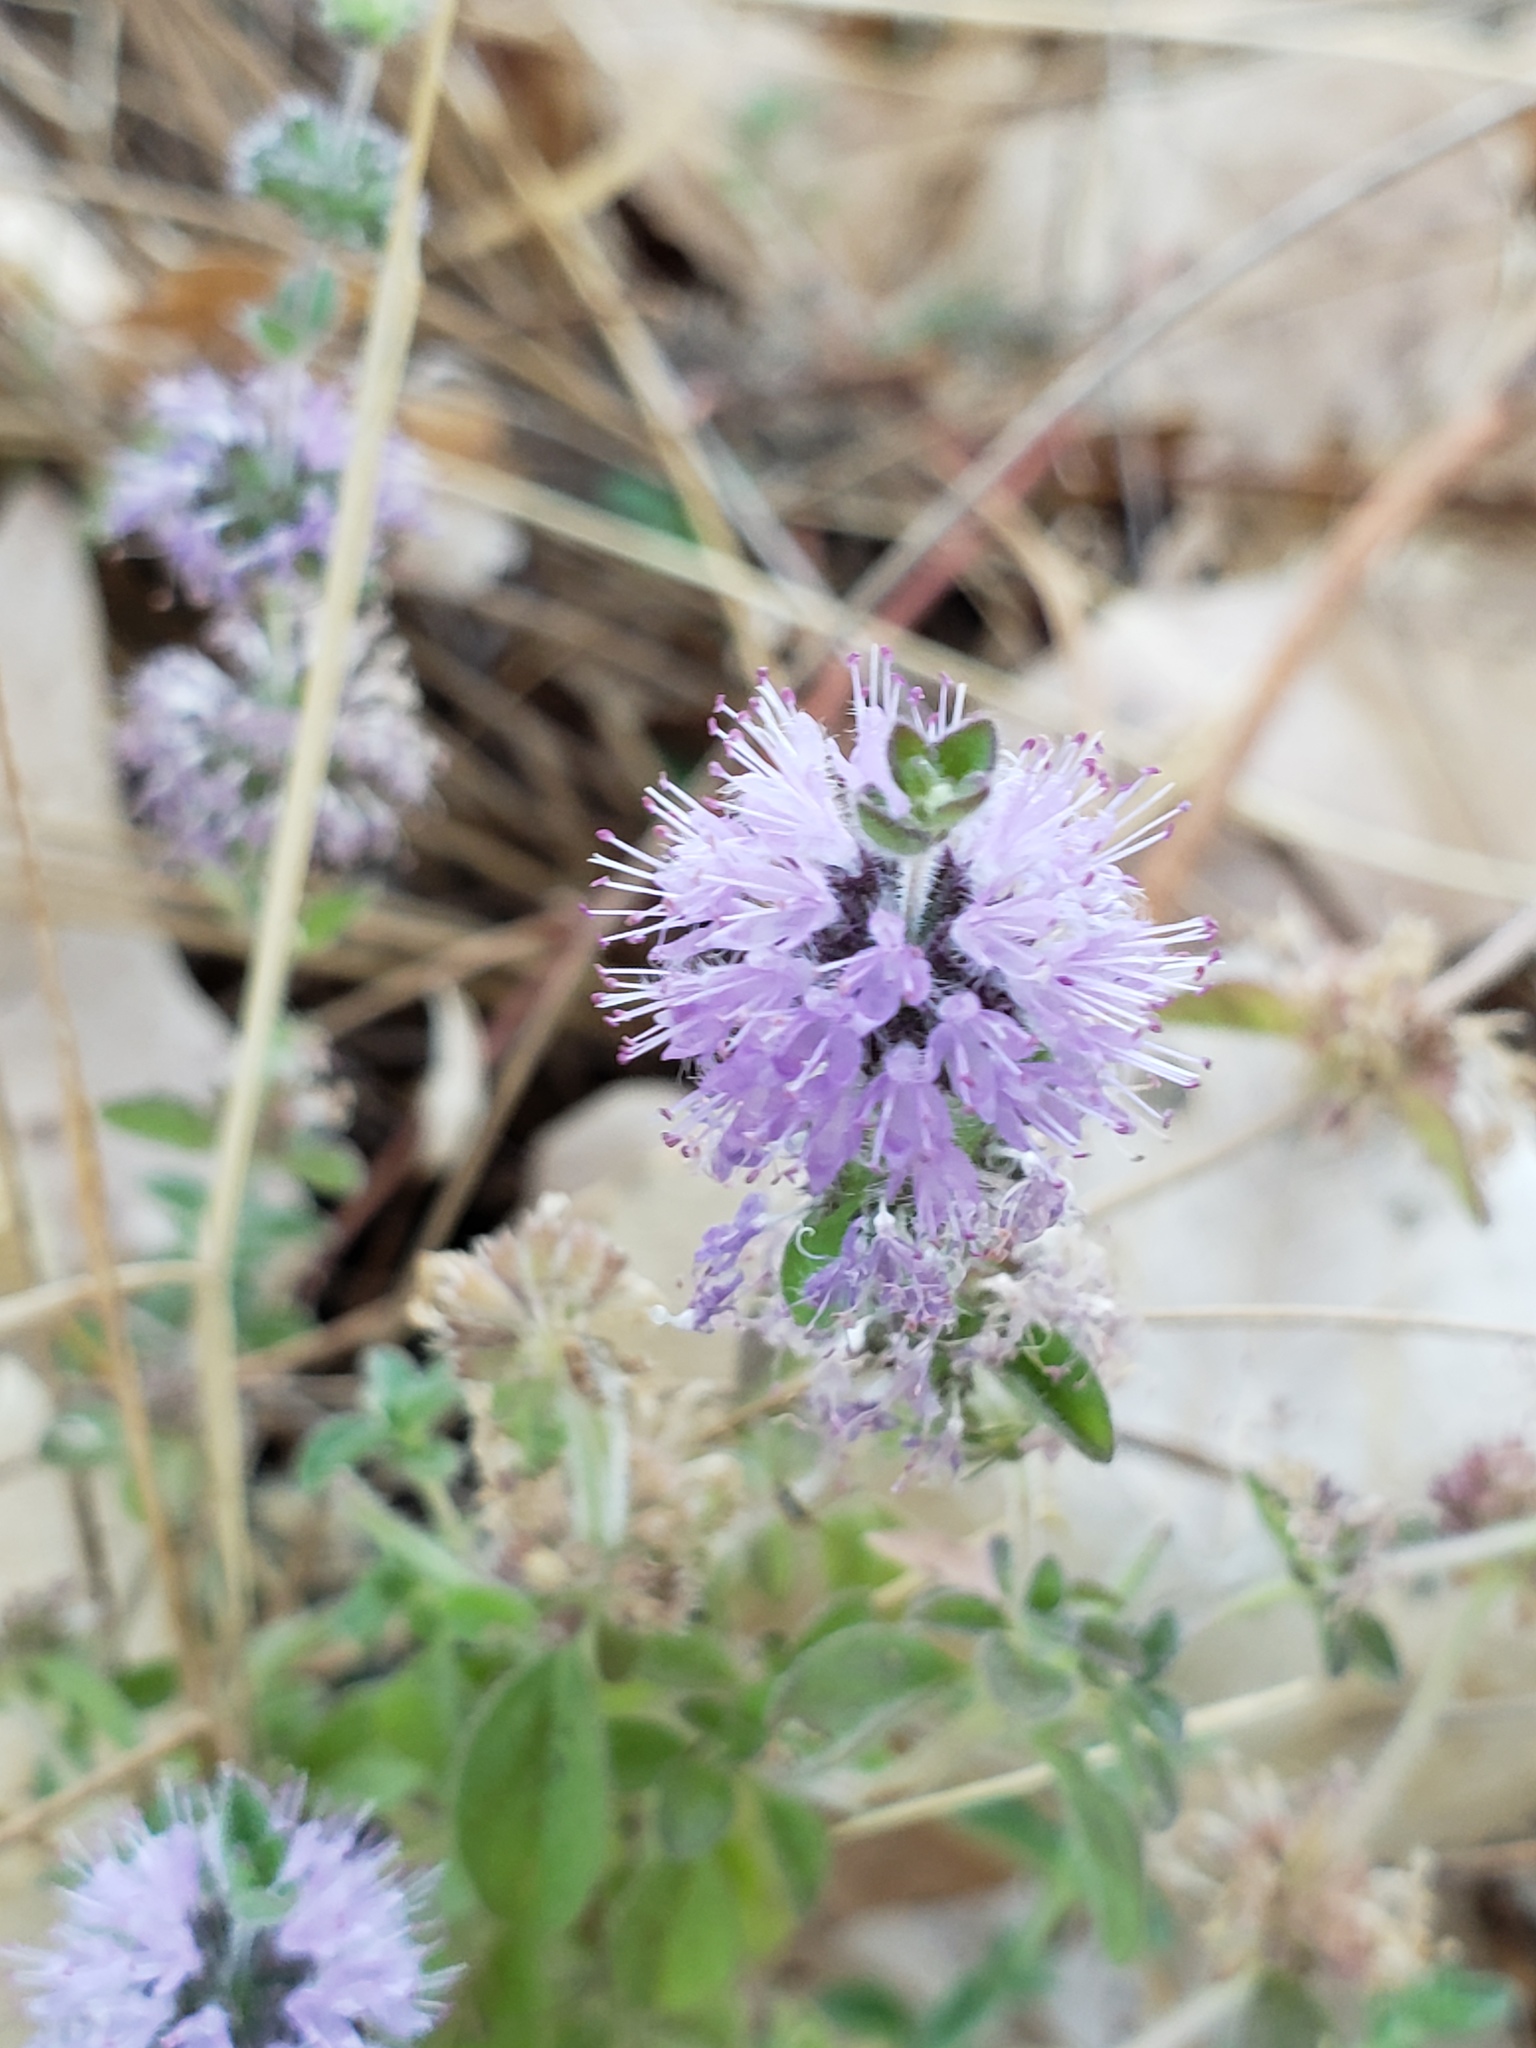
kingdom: Plantae
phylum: Tracheophyta
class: Magnoliopsida
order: Lamiales
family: Lamiaceae
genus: Mentha
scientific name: Mentha pulegium
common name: Pennyroyal
